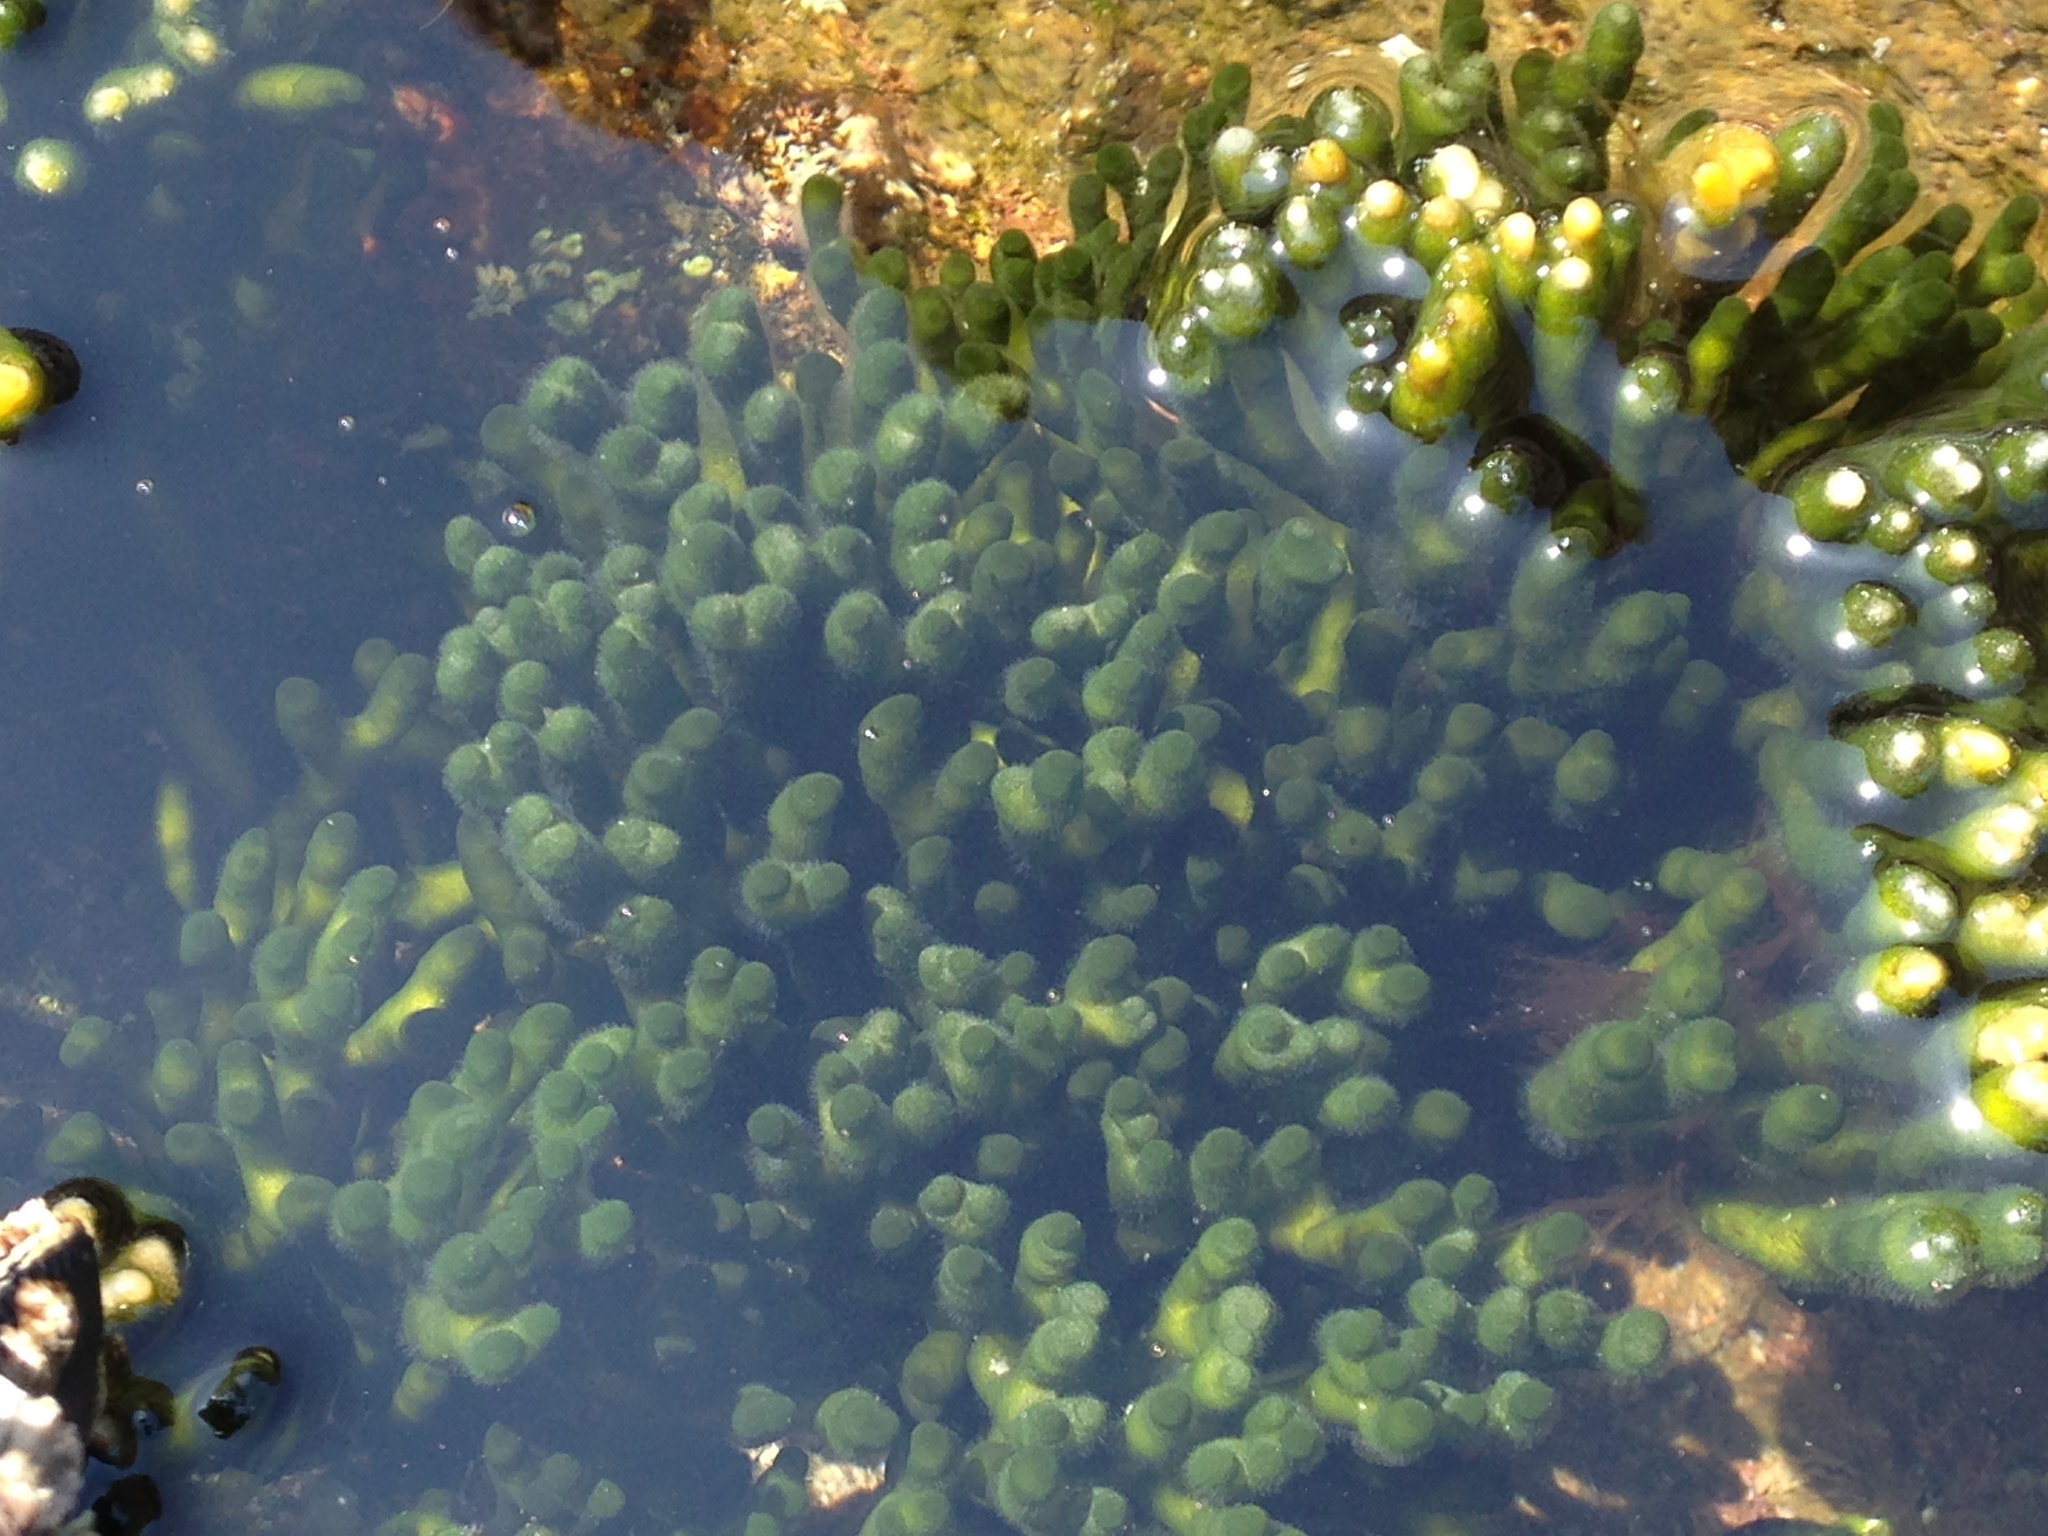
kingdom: Plantae
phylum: Chlorophyta
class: Ulvophyceae
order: Bryopsidales
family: Codiaceae
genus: Codium
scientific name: Codium fragile
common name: Dead man's fingers
